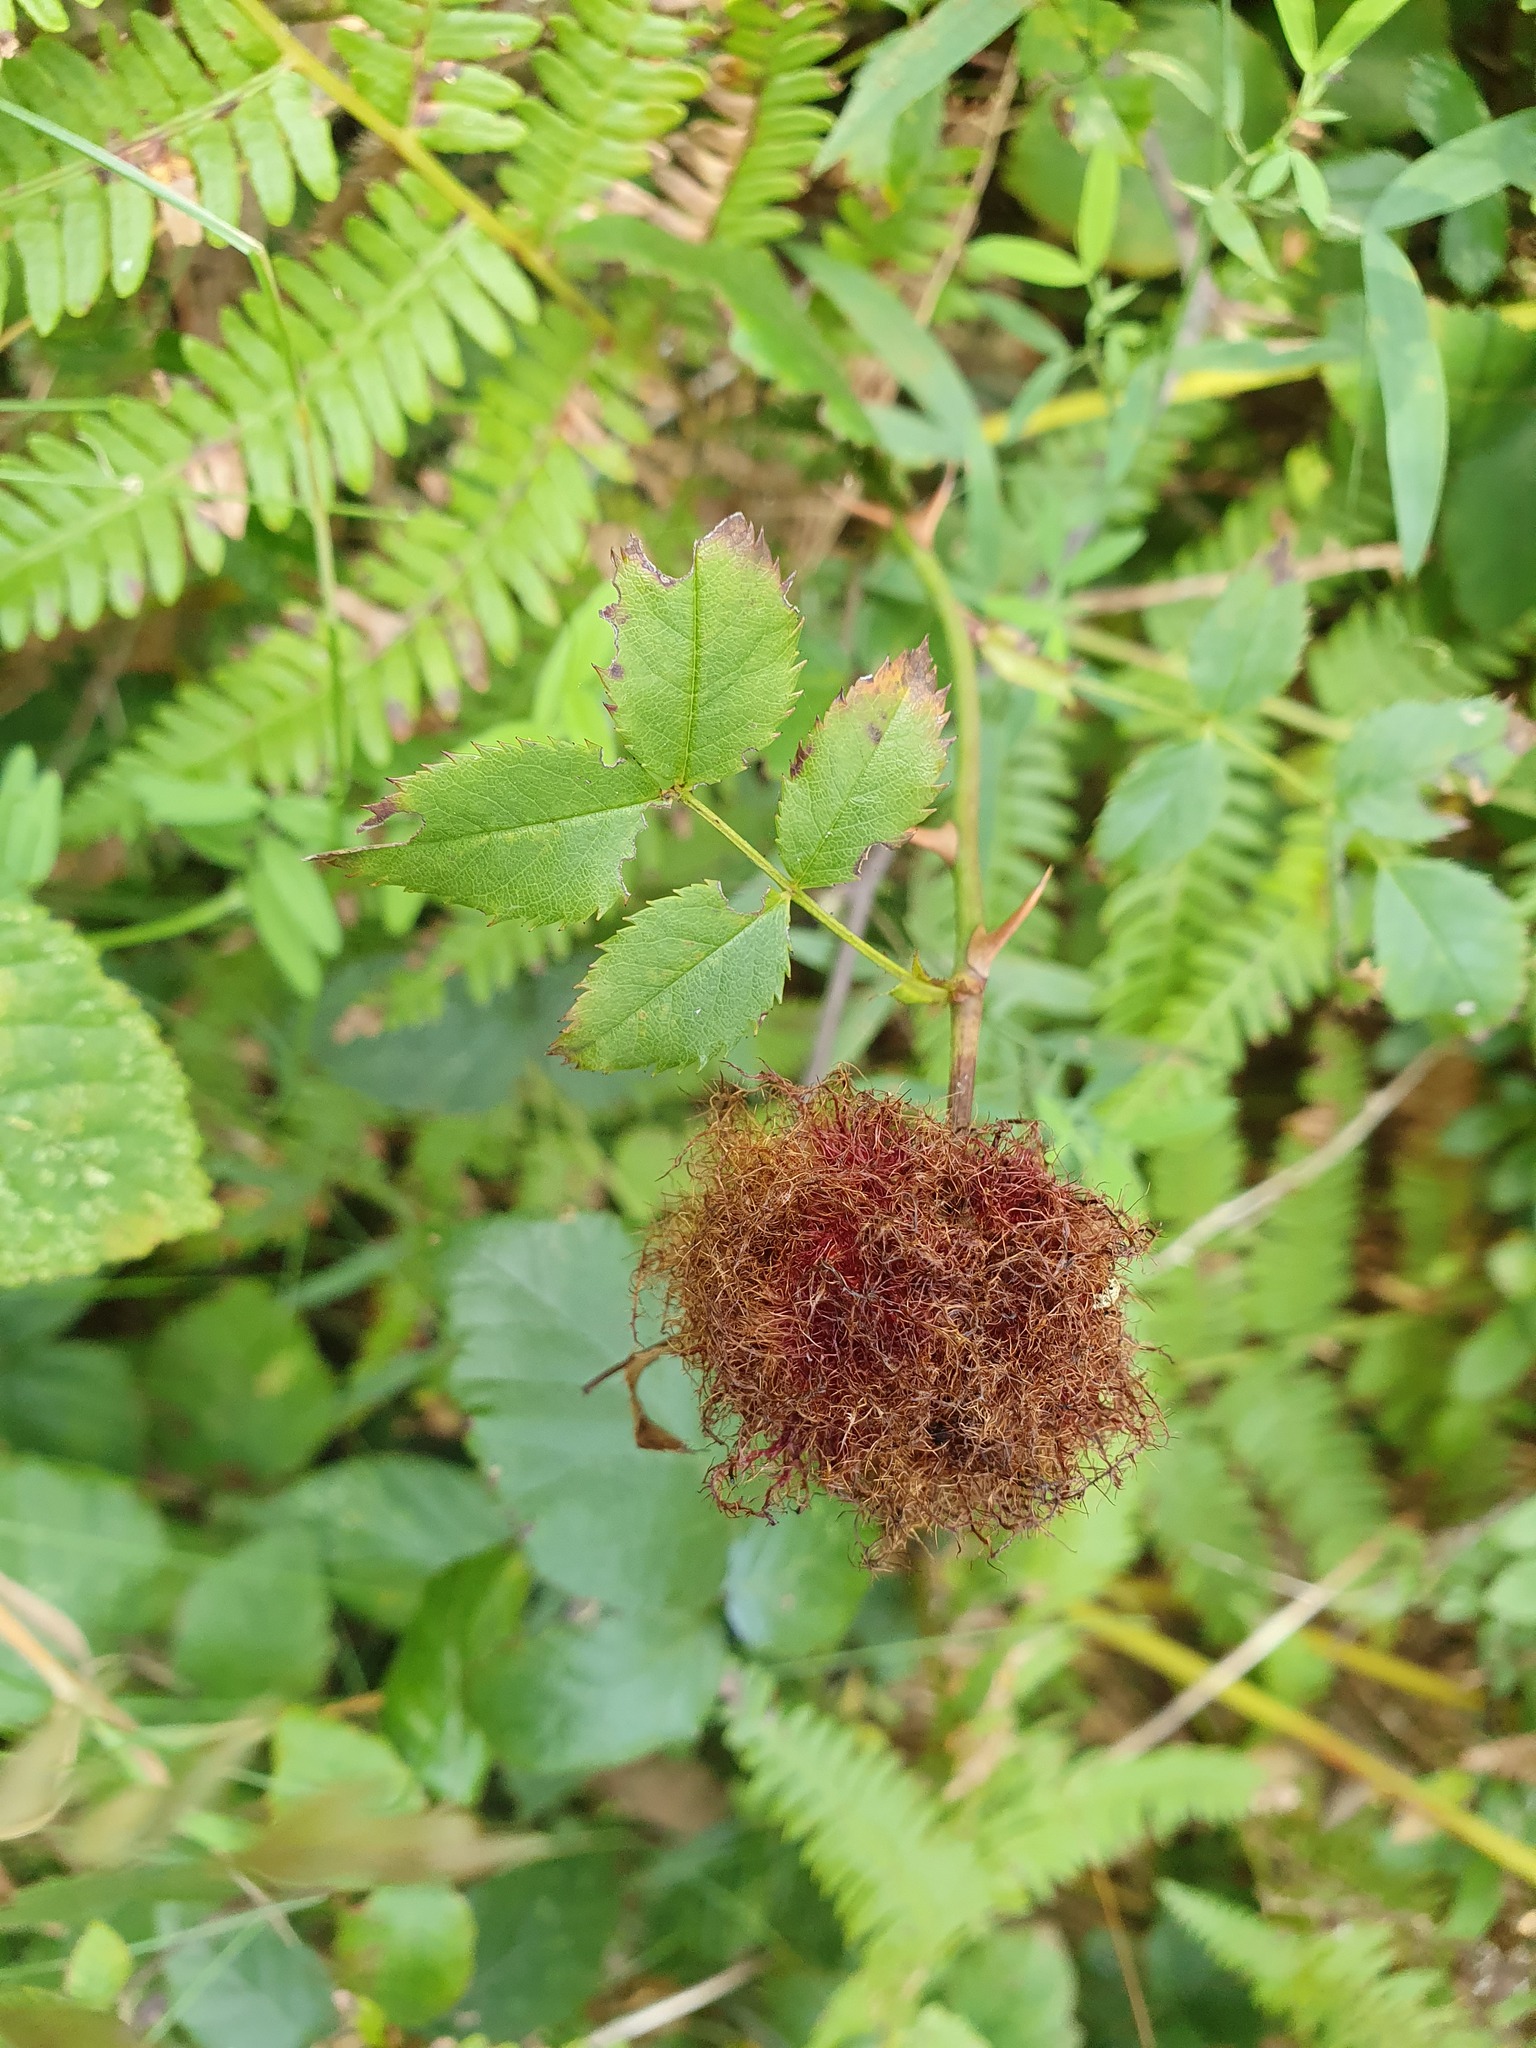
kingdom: Animalia
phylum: Arthropoda
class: Insecta
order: Hymenoptera
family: Cynipidae
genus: Diplolepis
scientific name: Diplolepis rosae
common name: Bedeguar gall
